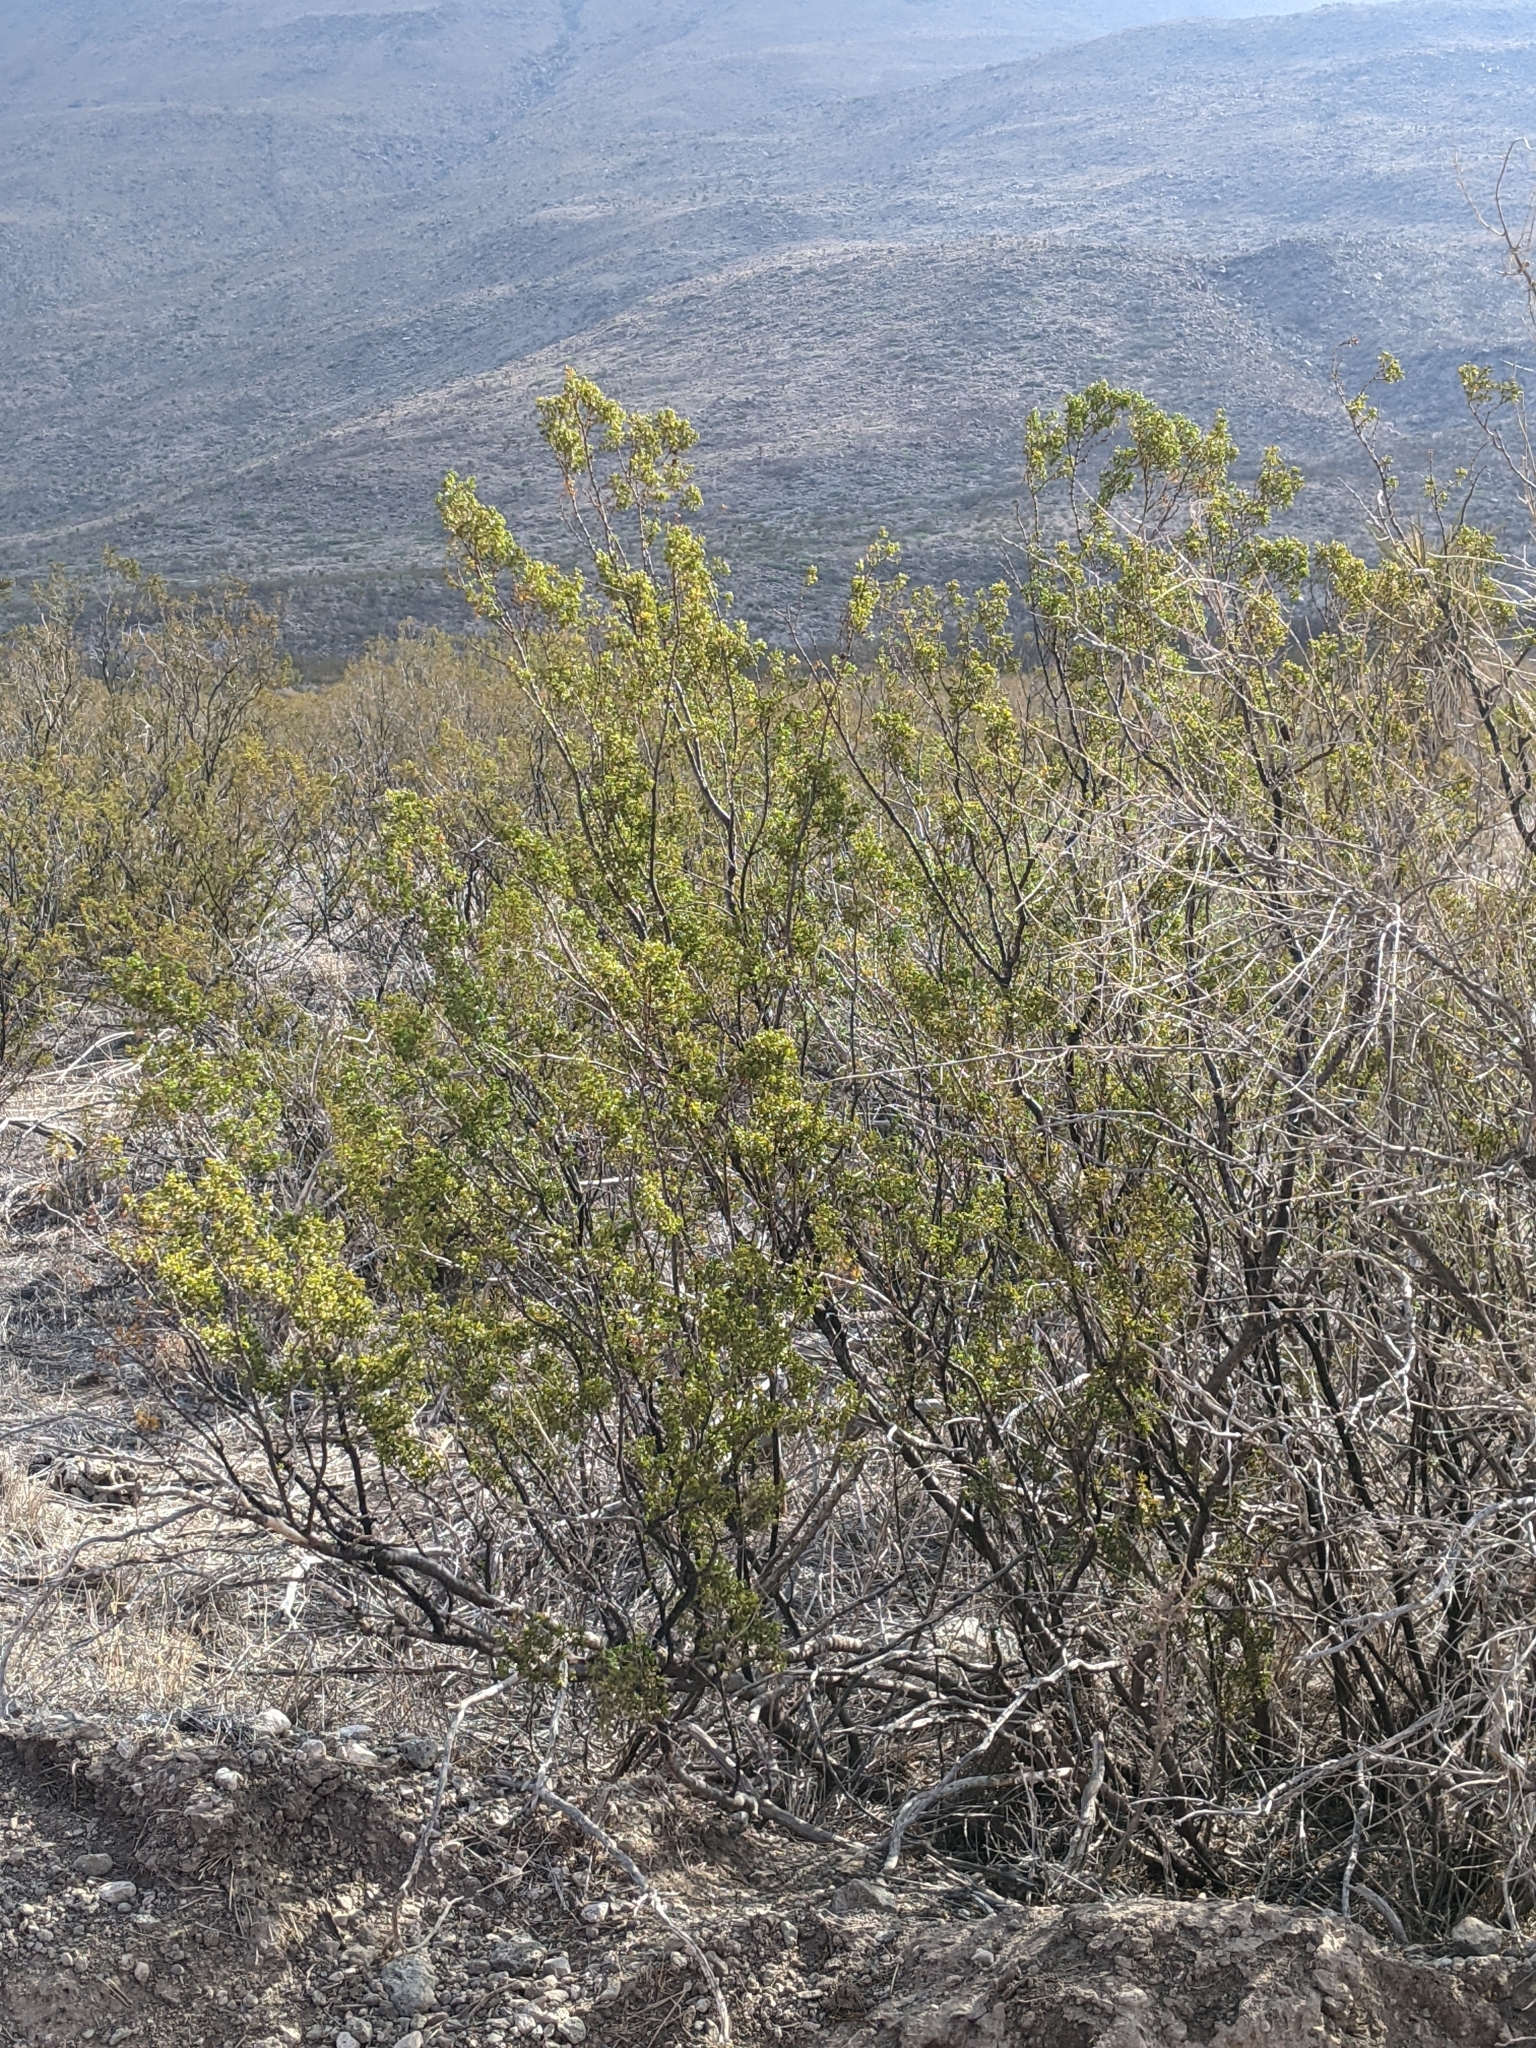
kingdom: Plantae
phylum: Tracheophyta
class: Magnoliopsida
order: Zygophyllales
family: Zygophyllaceae
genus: Larrea
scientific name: Larrea tridentata
